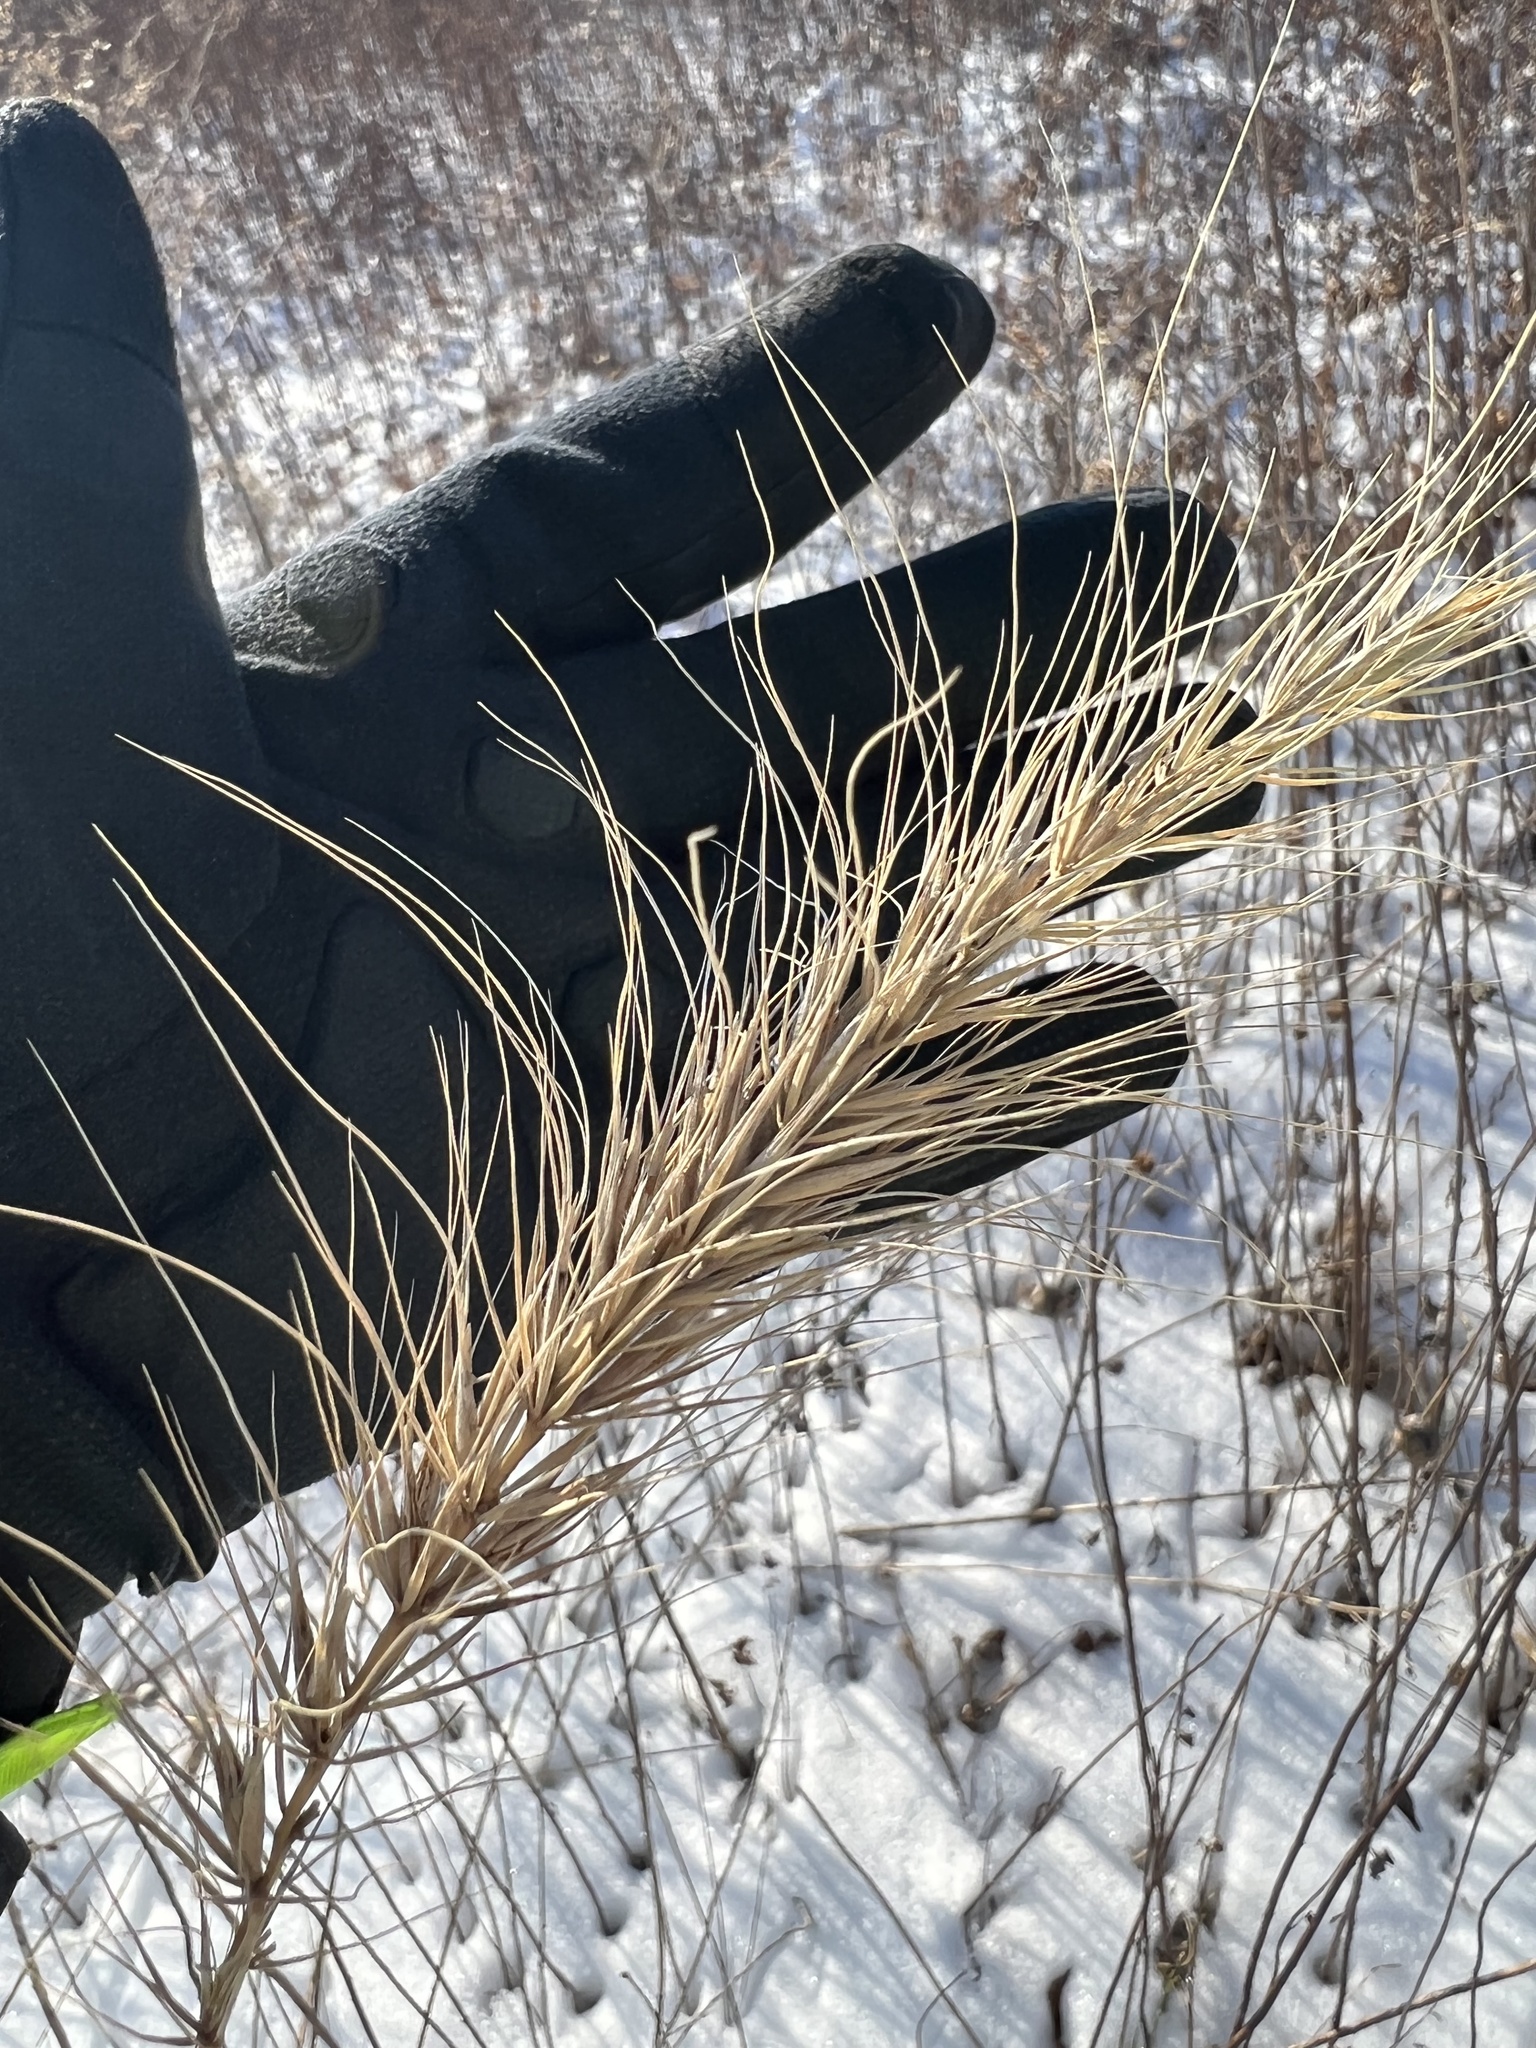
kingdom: Plantae
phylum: Tracheophyta
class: Liliopsida
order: Poales
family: Poaceae
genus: Elymus
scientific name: Elymus canadensis
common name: Canada wild rye
